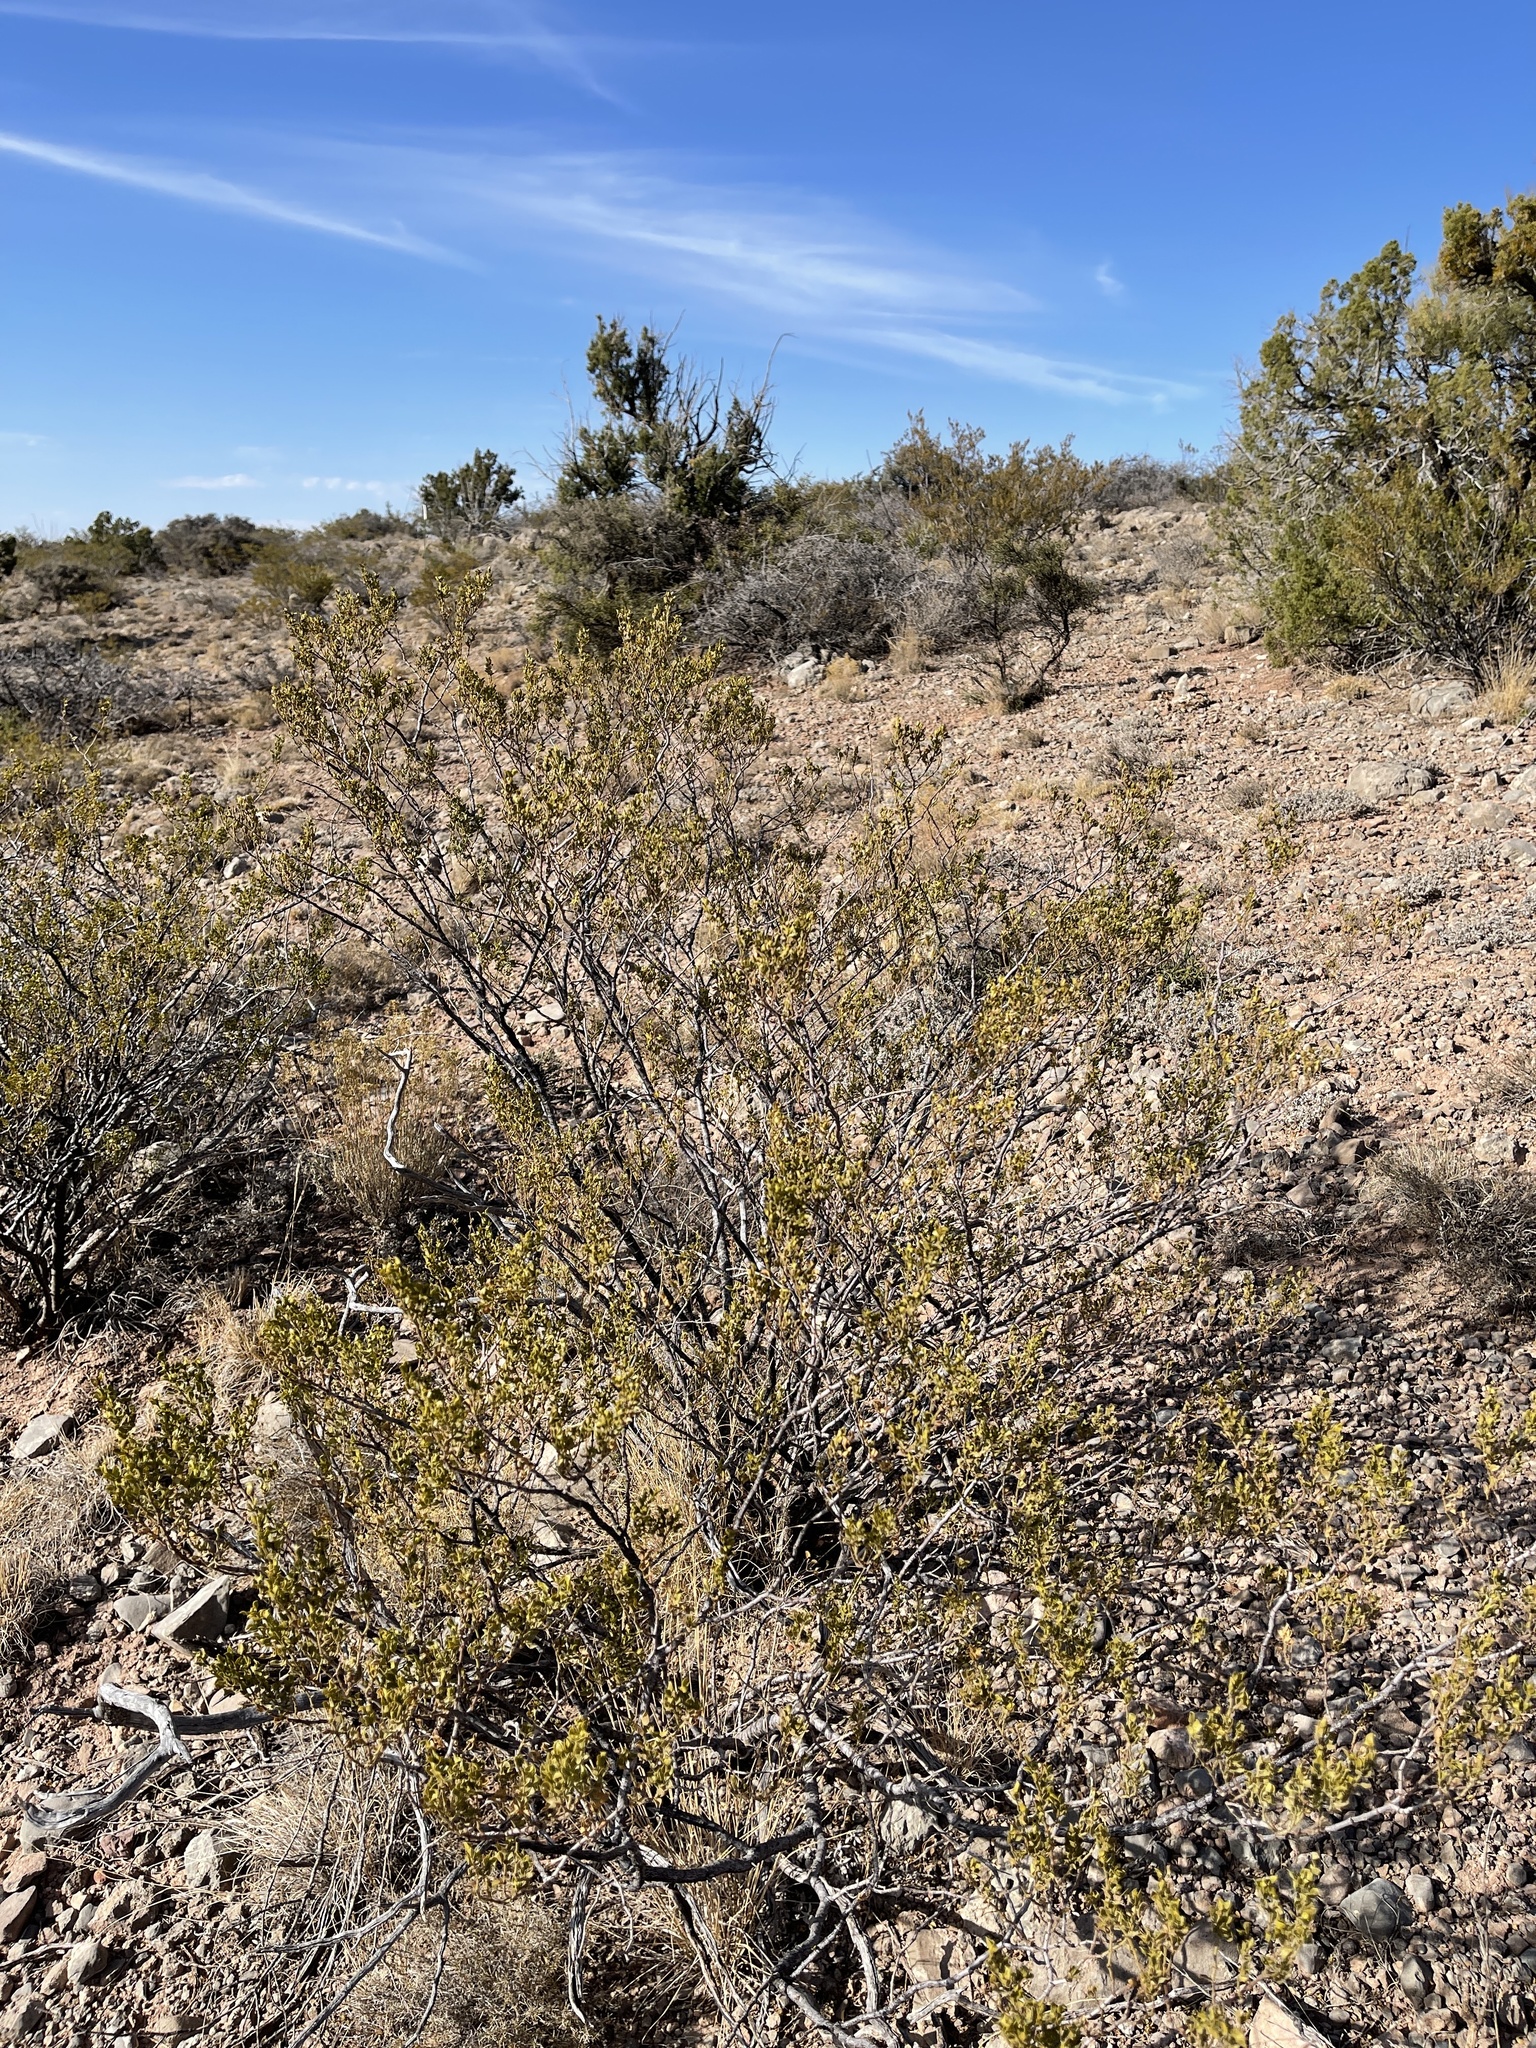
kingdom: Plantae
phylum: Tracheophyta
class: Magnoliopsida
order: Zygophyllales
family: Zygophyllaceae
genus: Larrea
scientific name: Larrea tridentata
